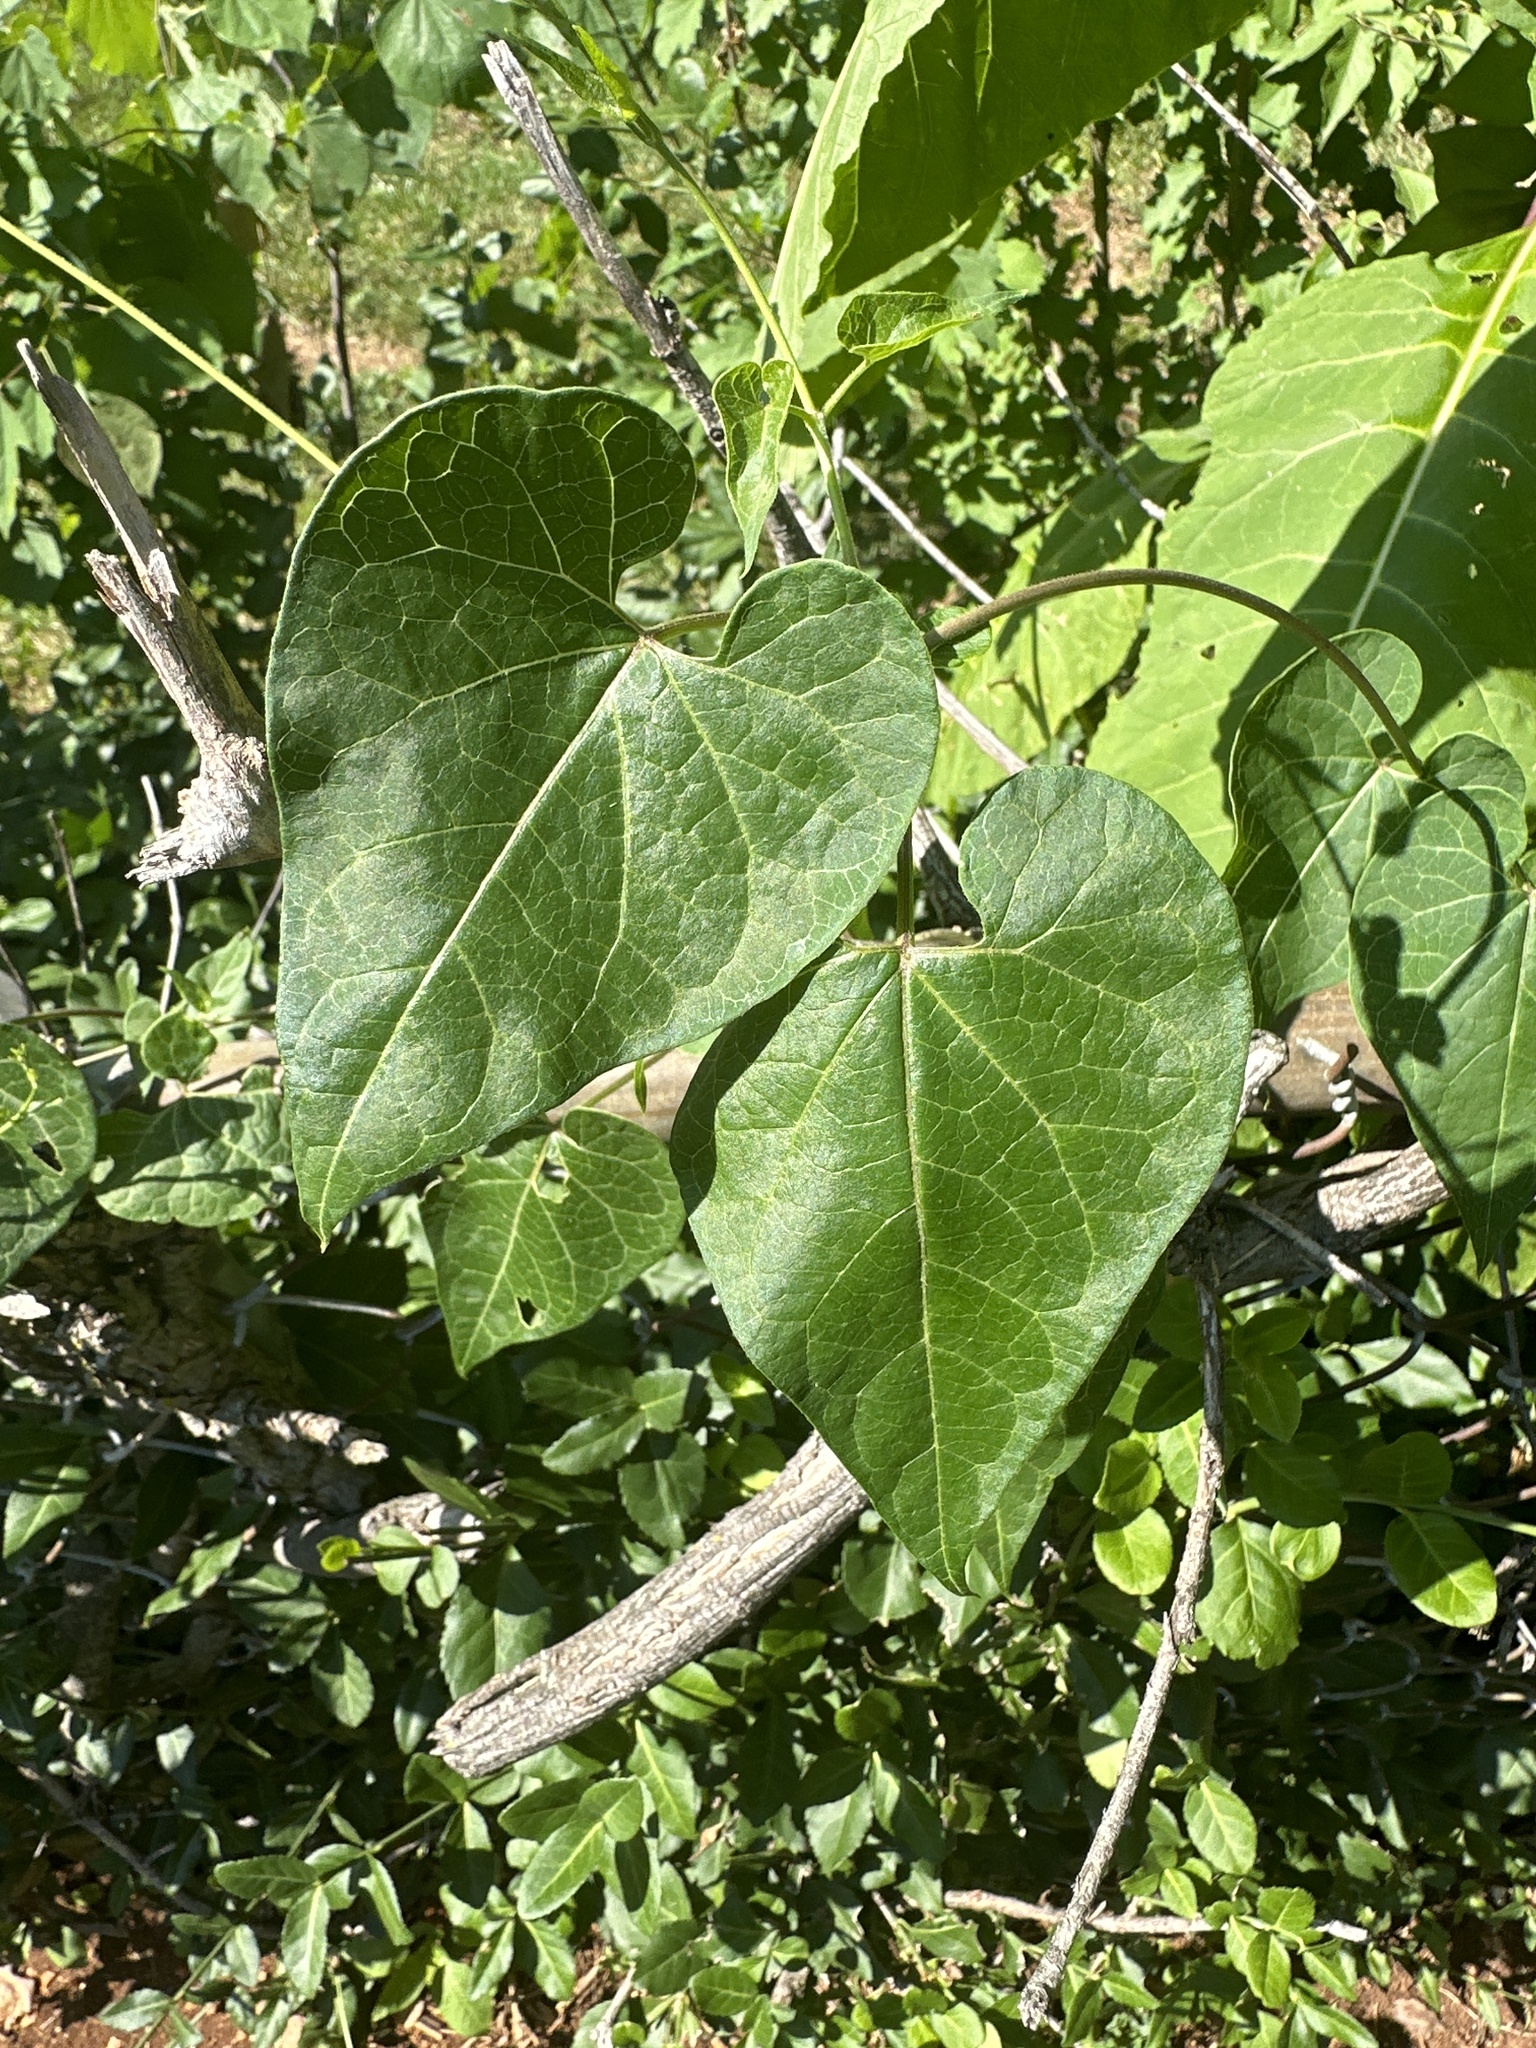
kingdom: Plantae
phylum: Tracheophyta
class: Magnoliopsida
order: Gentianales
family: Apocynaceae
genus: Cynanchum
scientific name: Cynanchum laeve
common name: Sandvine
